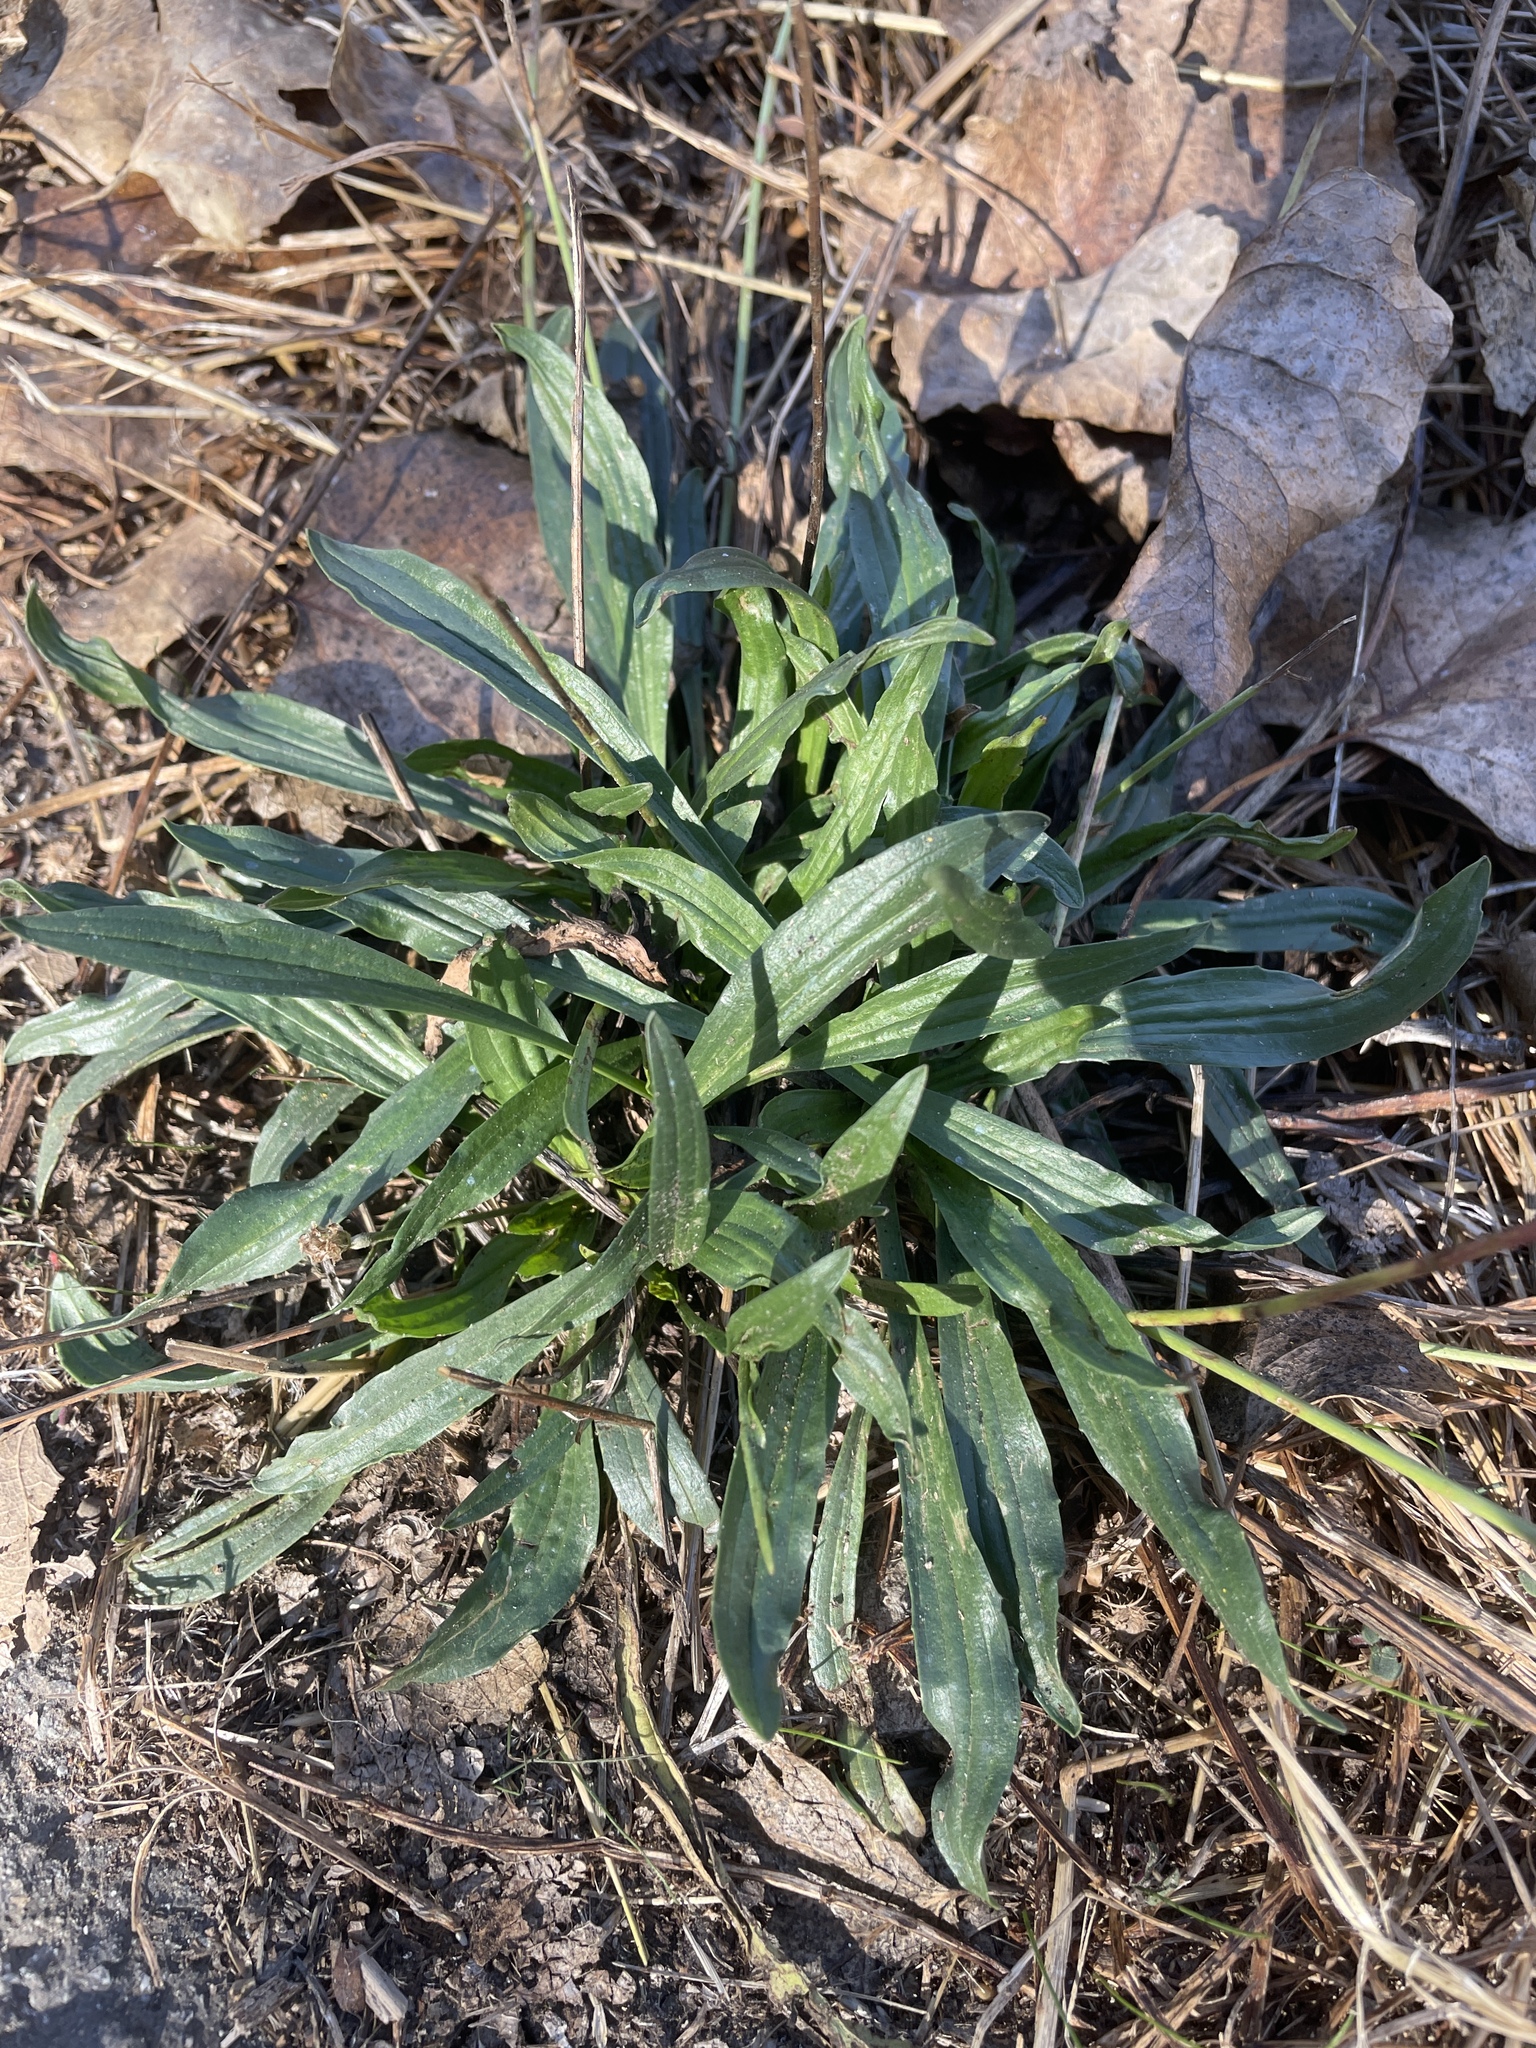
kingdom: Plantae
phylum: Tracheophyta
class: Magnoliopsida
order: Lamiales
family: Plantaginaceae
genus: Plantago
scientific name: Plantago lanceolata
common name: Ribwort plantain
